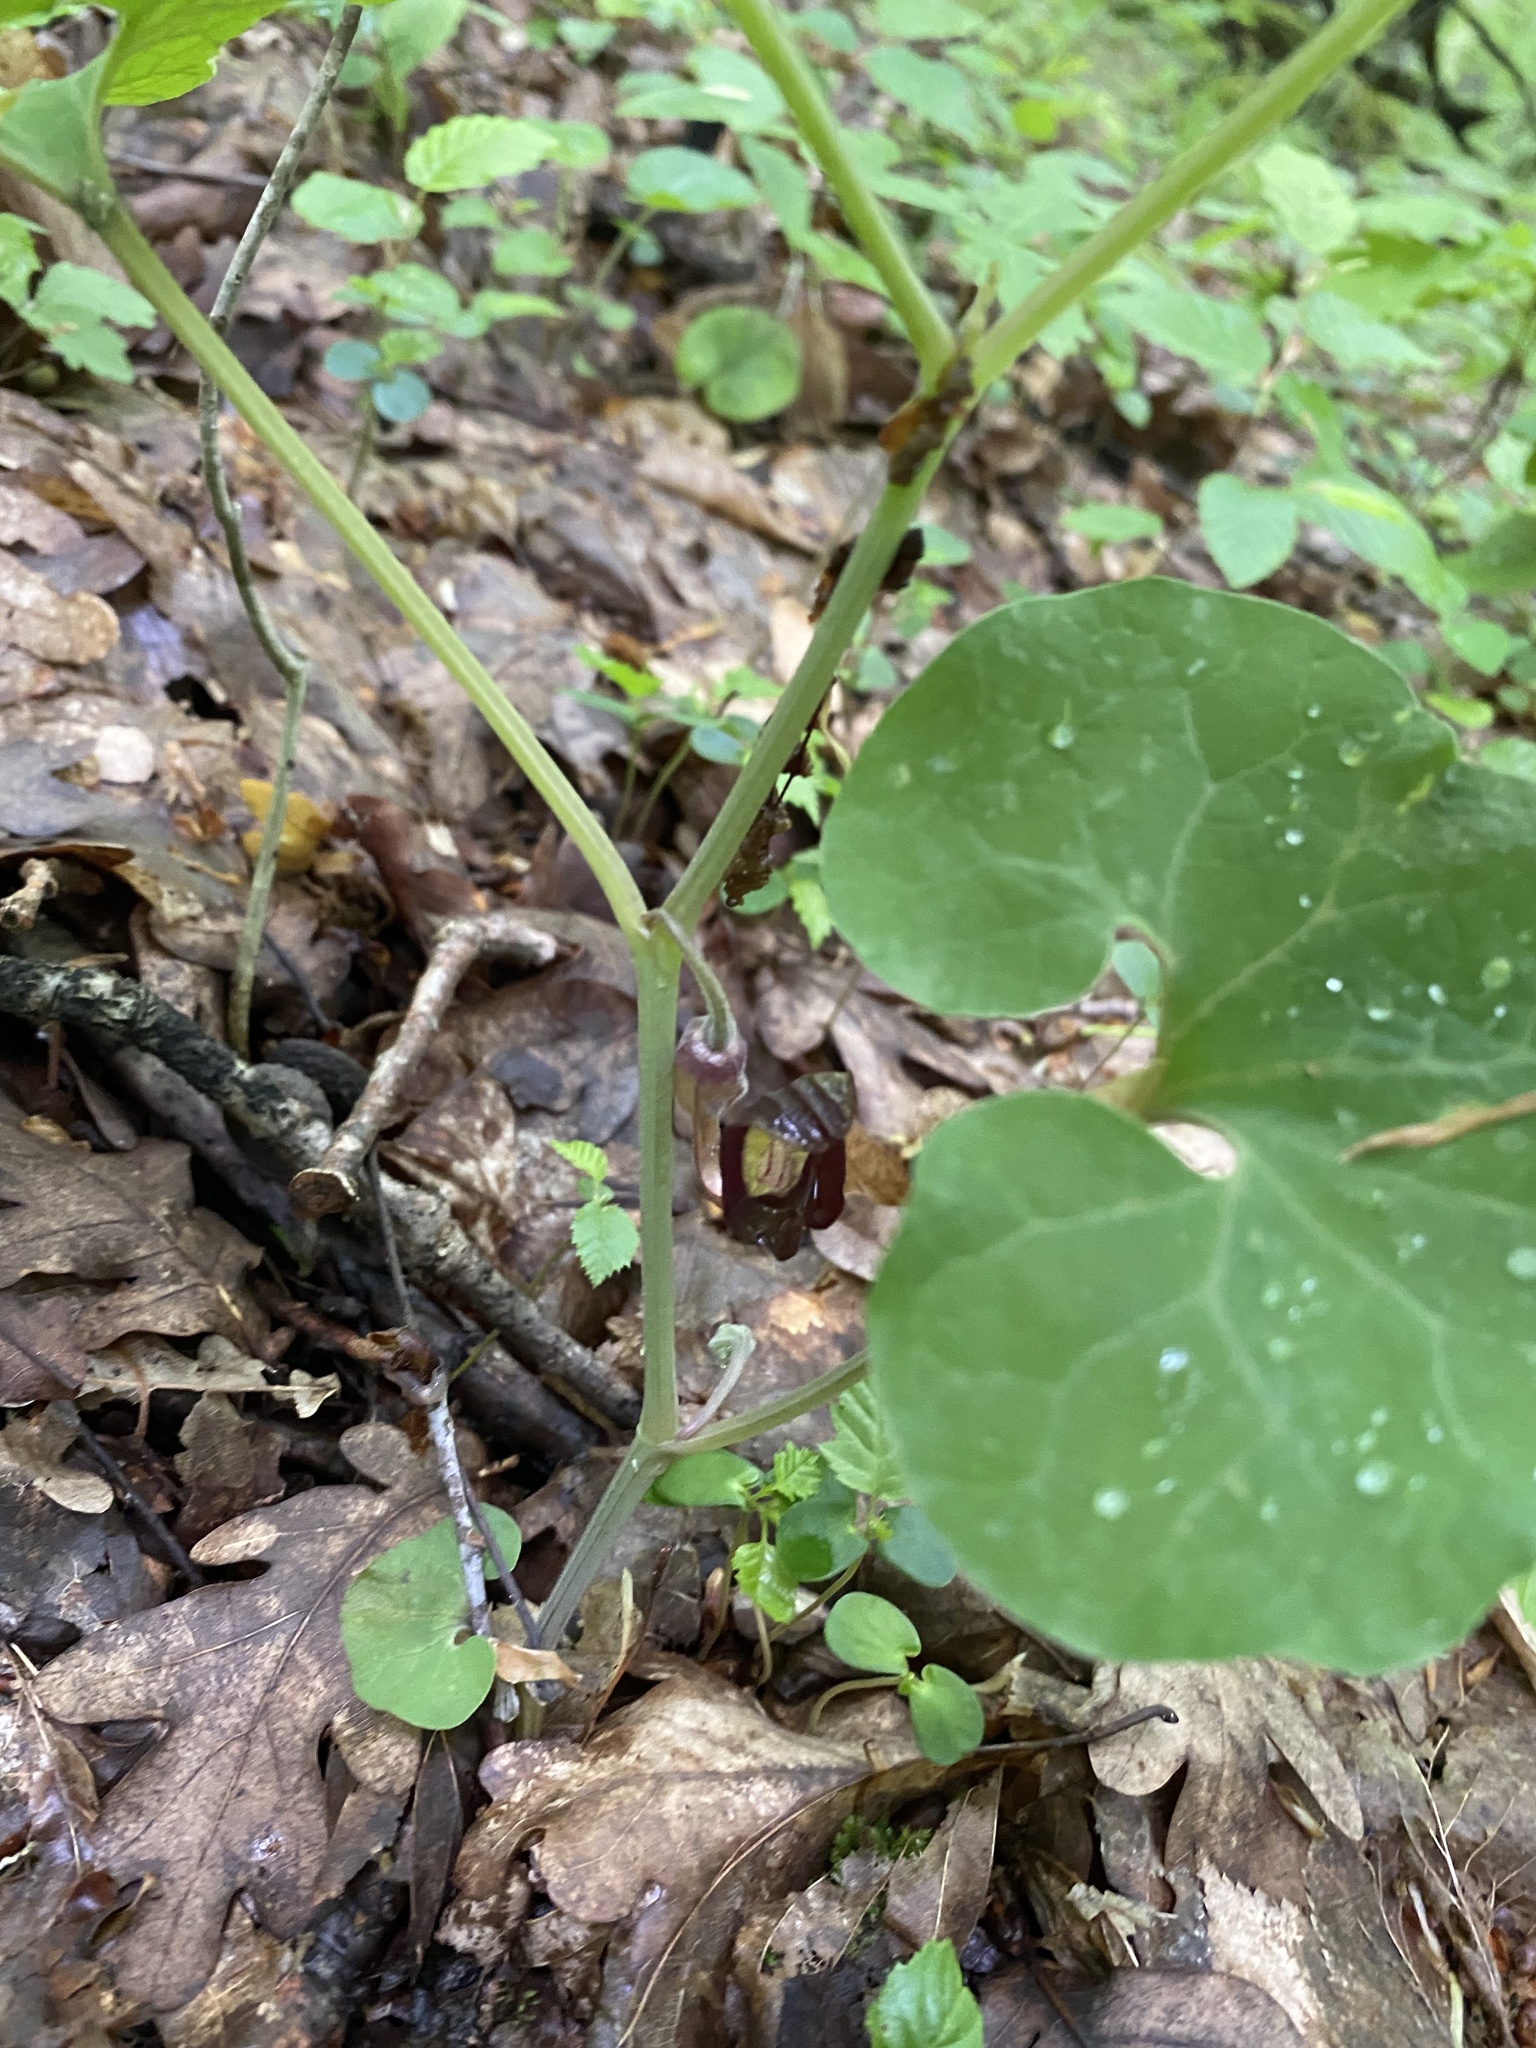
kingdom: Plantae
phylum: Tracheophyta
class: Magnoliopsida
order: Piperales
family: Aristolochiaceae
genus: Aristolochia
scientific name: Aristolochia steupii
